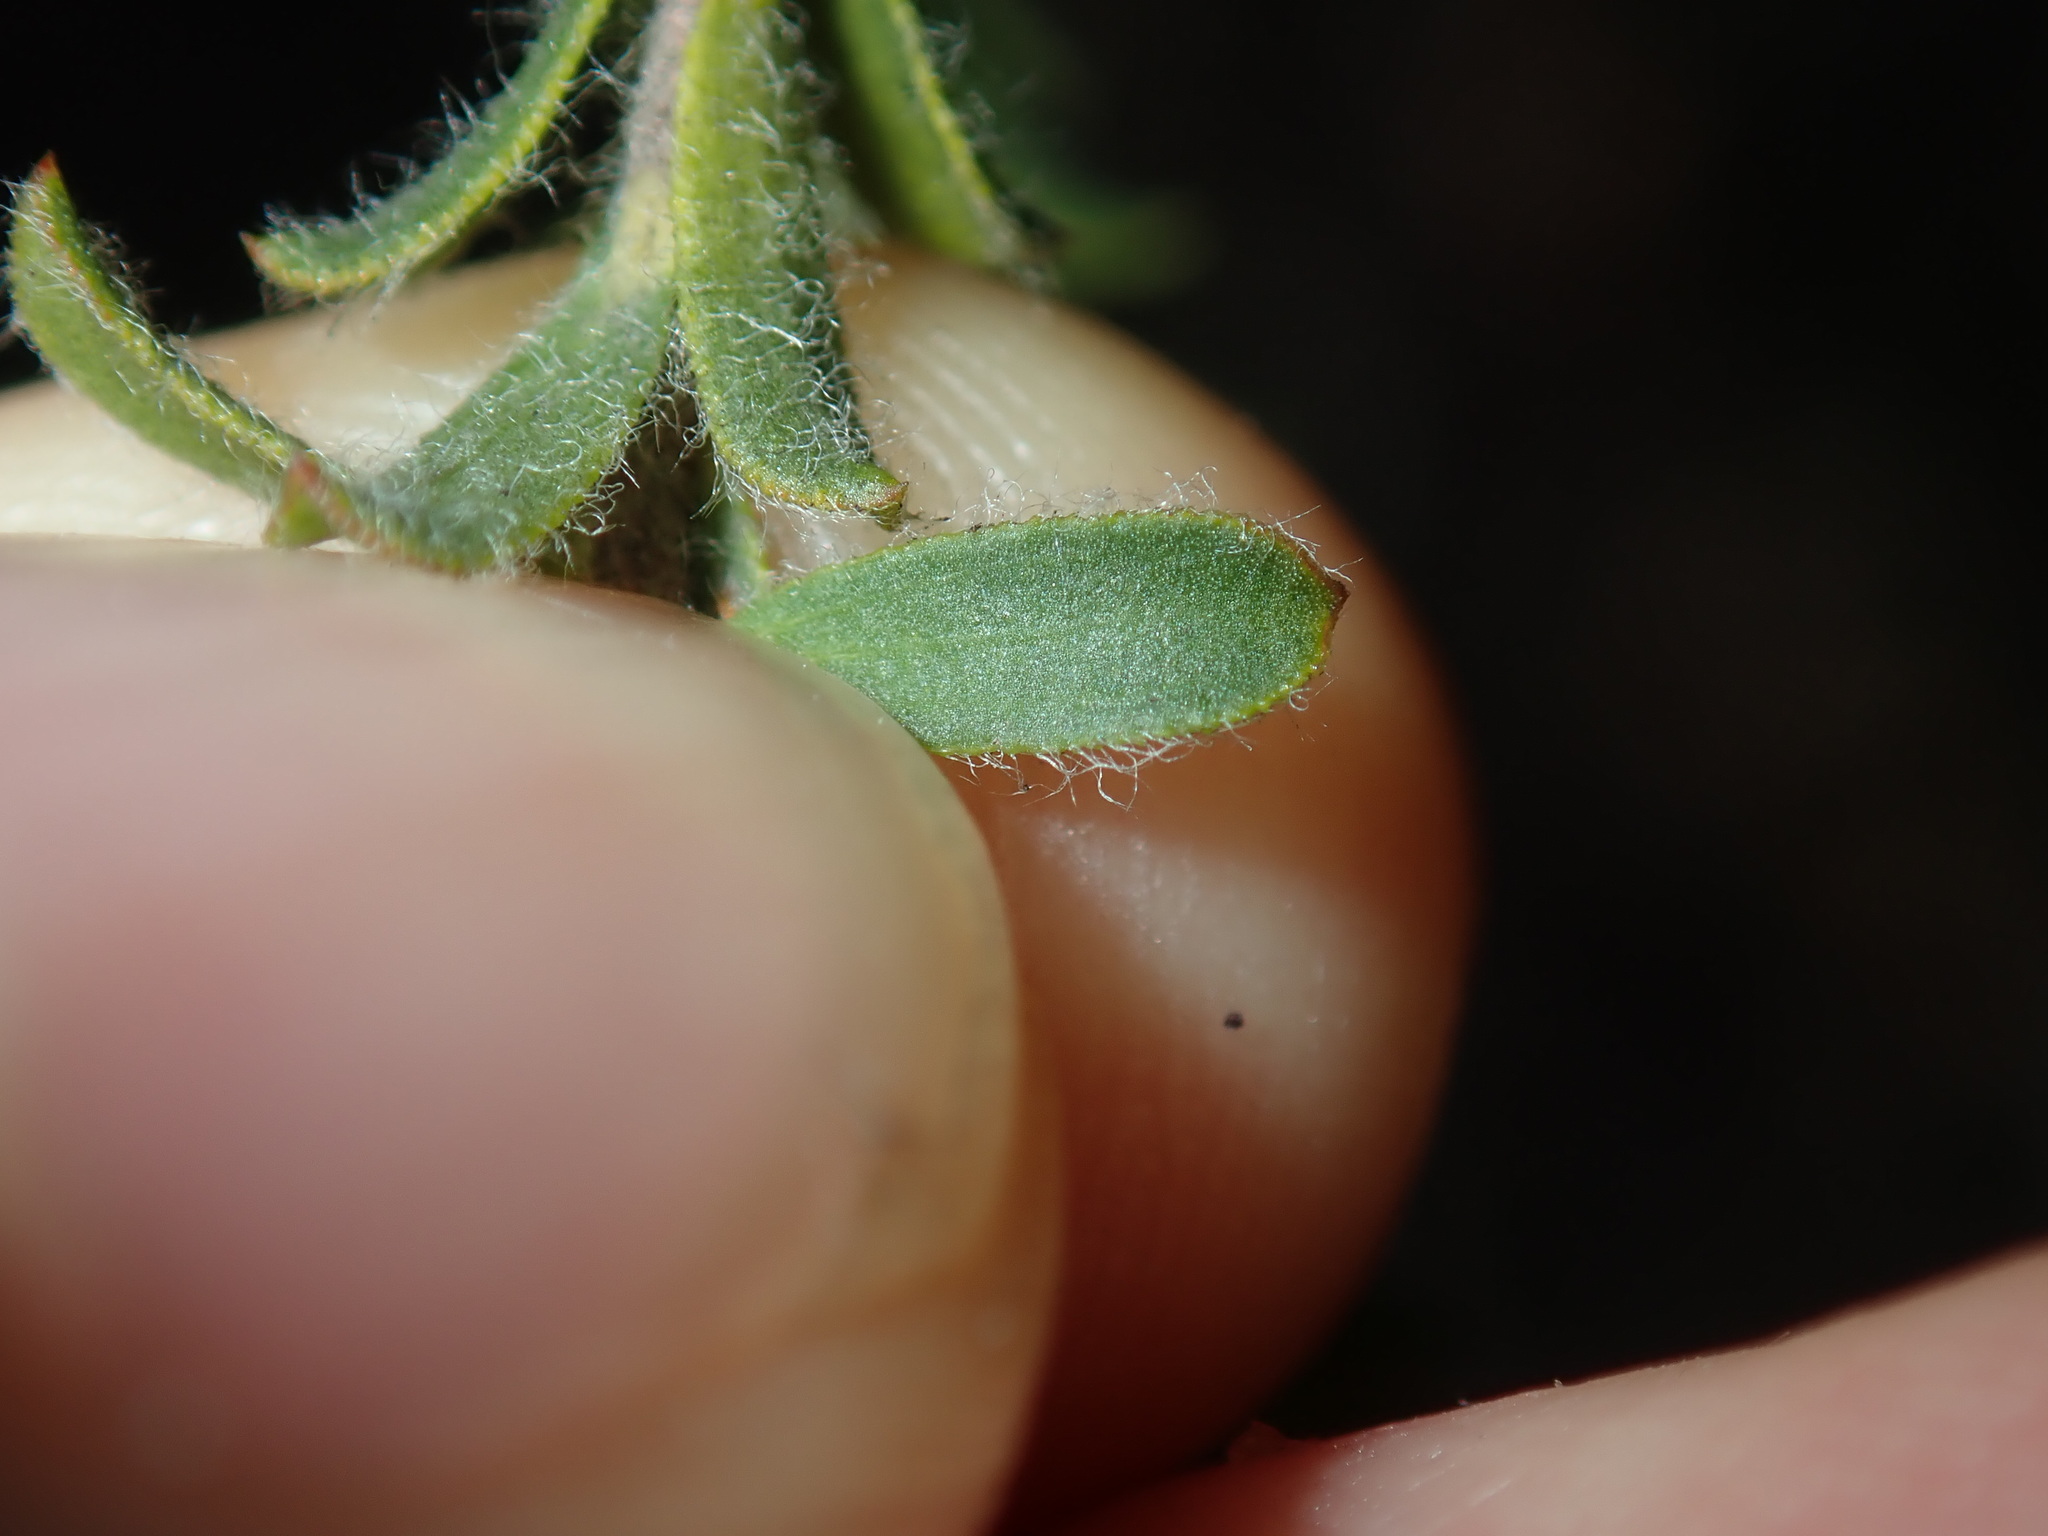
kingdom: Plantae
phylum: Tracheophyta
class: Magnoliopsida
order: Myrtales
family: Myrtaceae
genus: Kunzea
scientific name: Kunzea capitata
